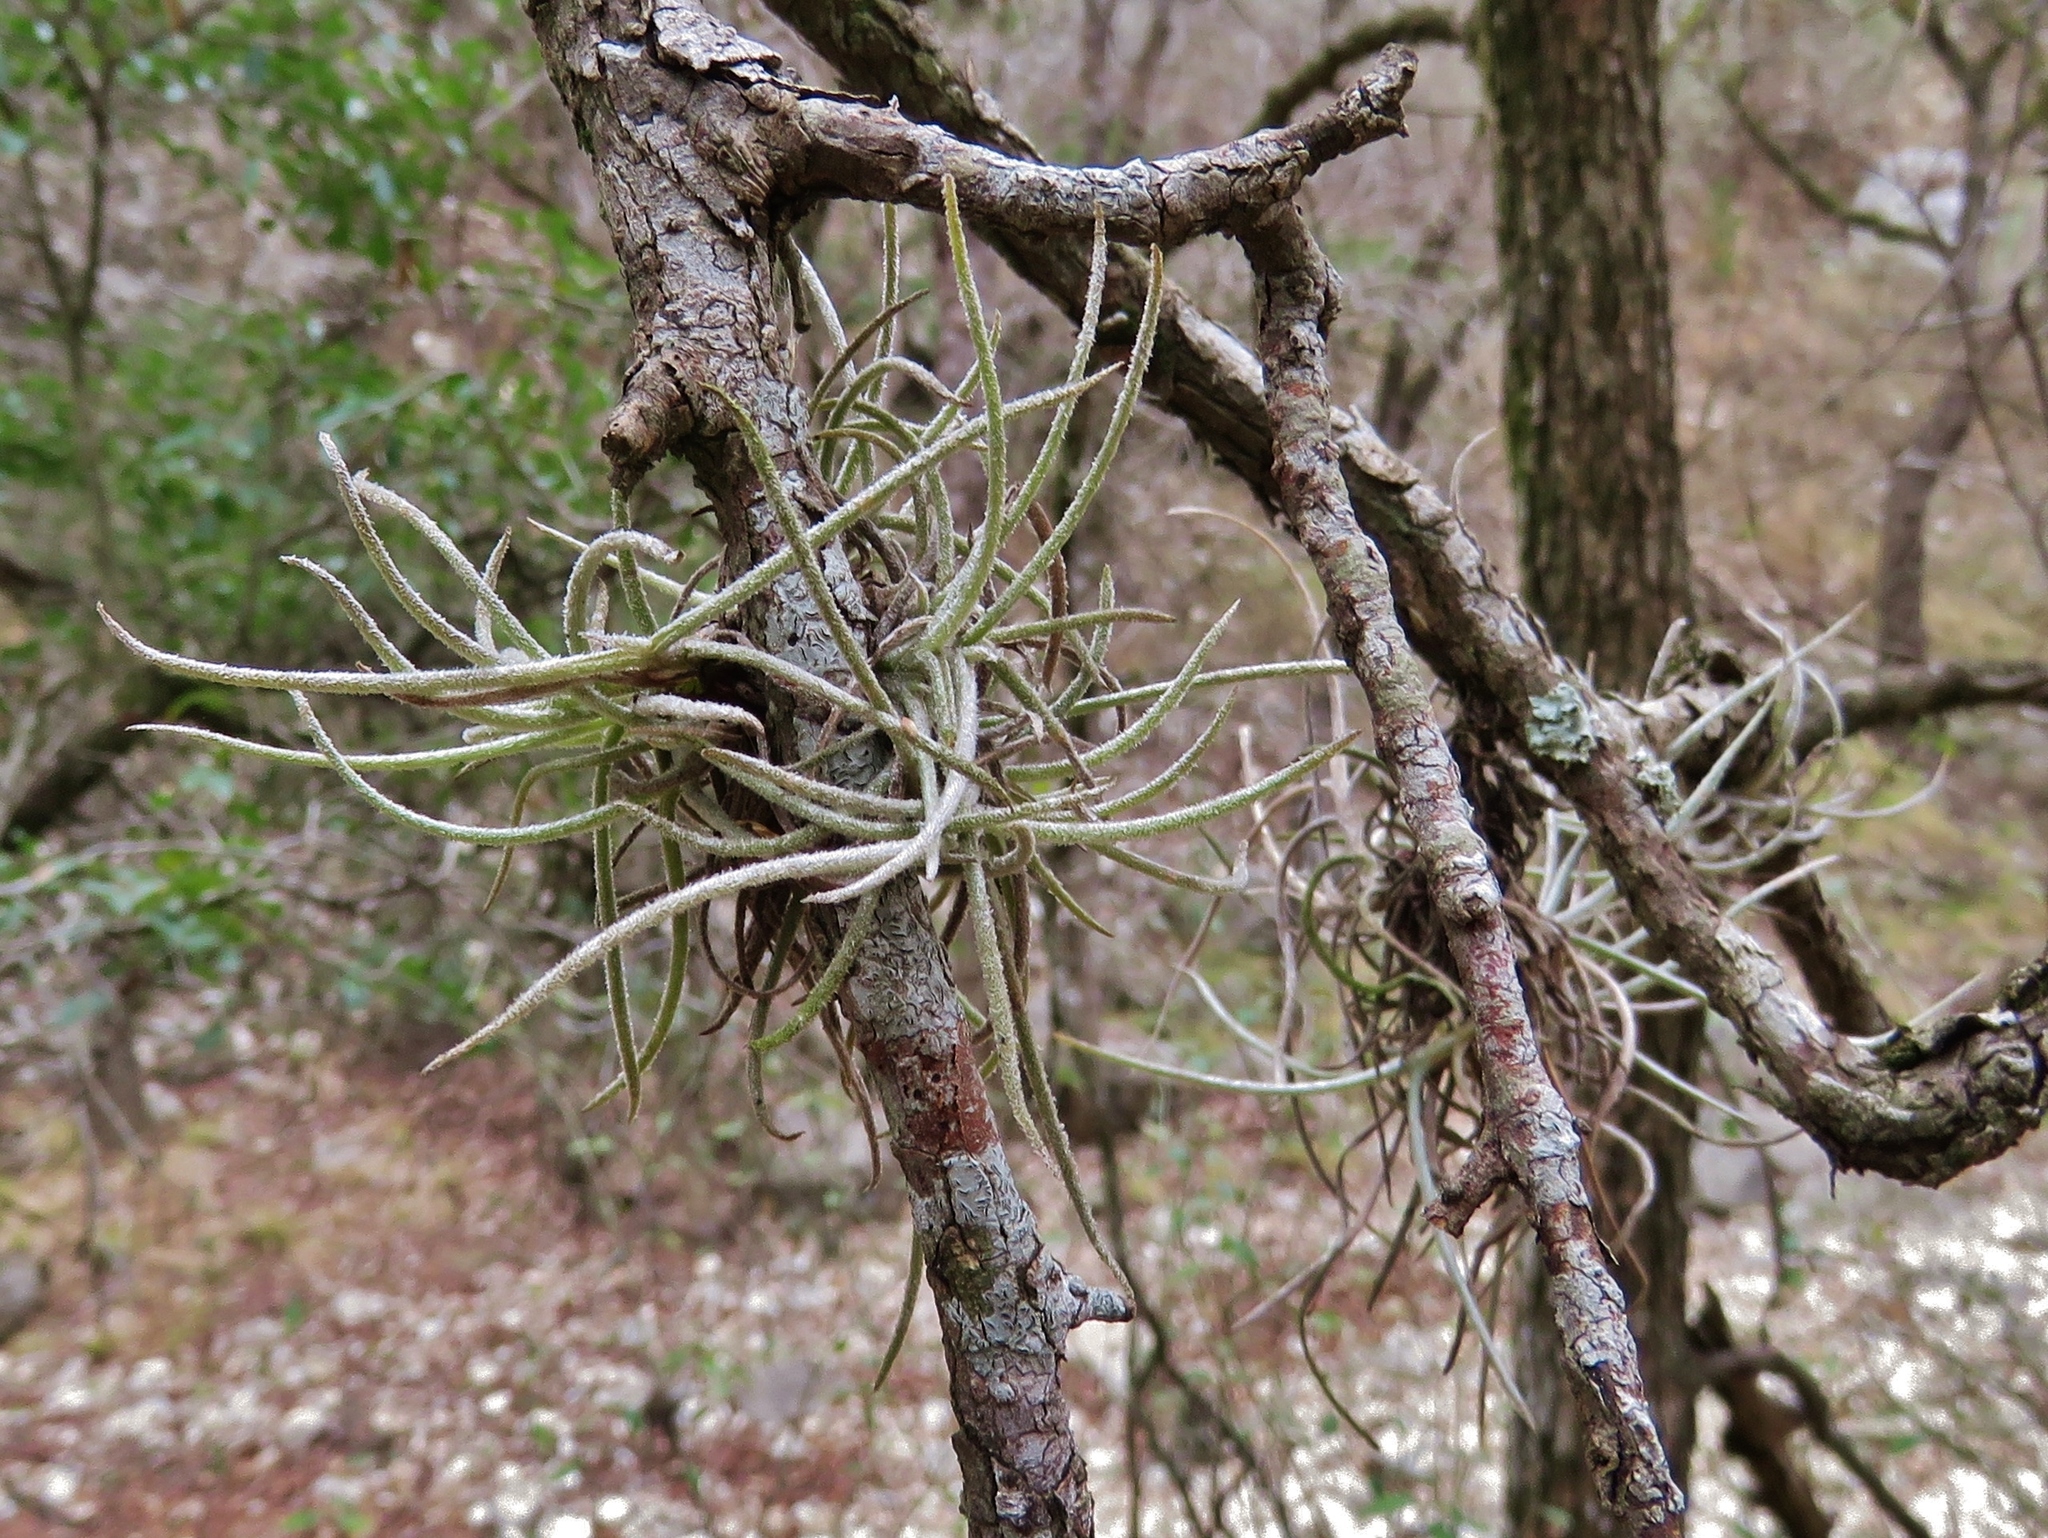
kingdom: Plantae
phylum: Tracheophyta
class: Liliopsida
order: Poales
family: Bromeliaceae
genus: Tillandsia
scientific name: Tillandsia recurvata
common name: Small ballmoss
